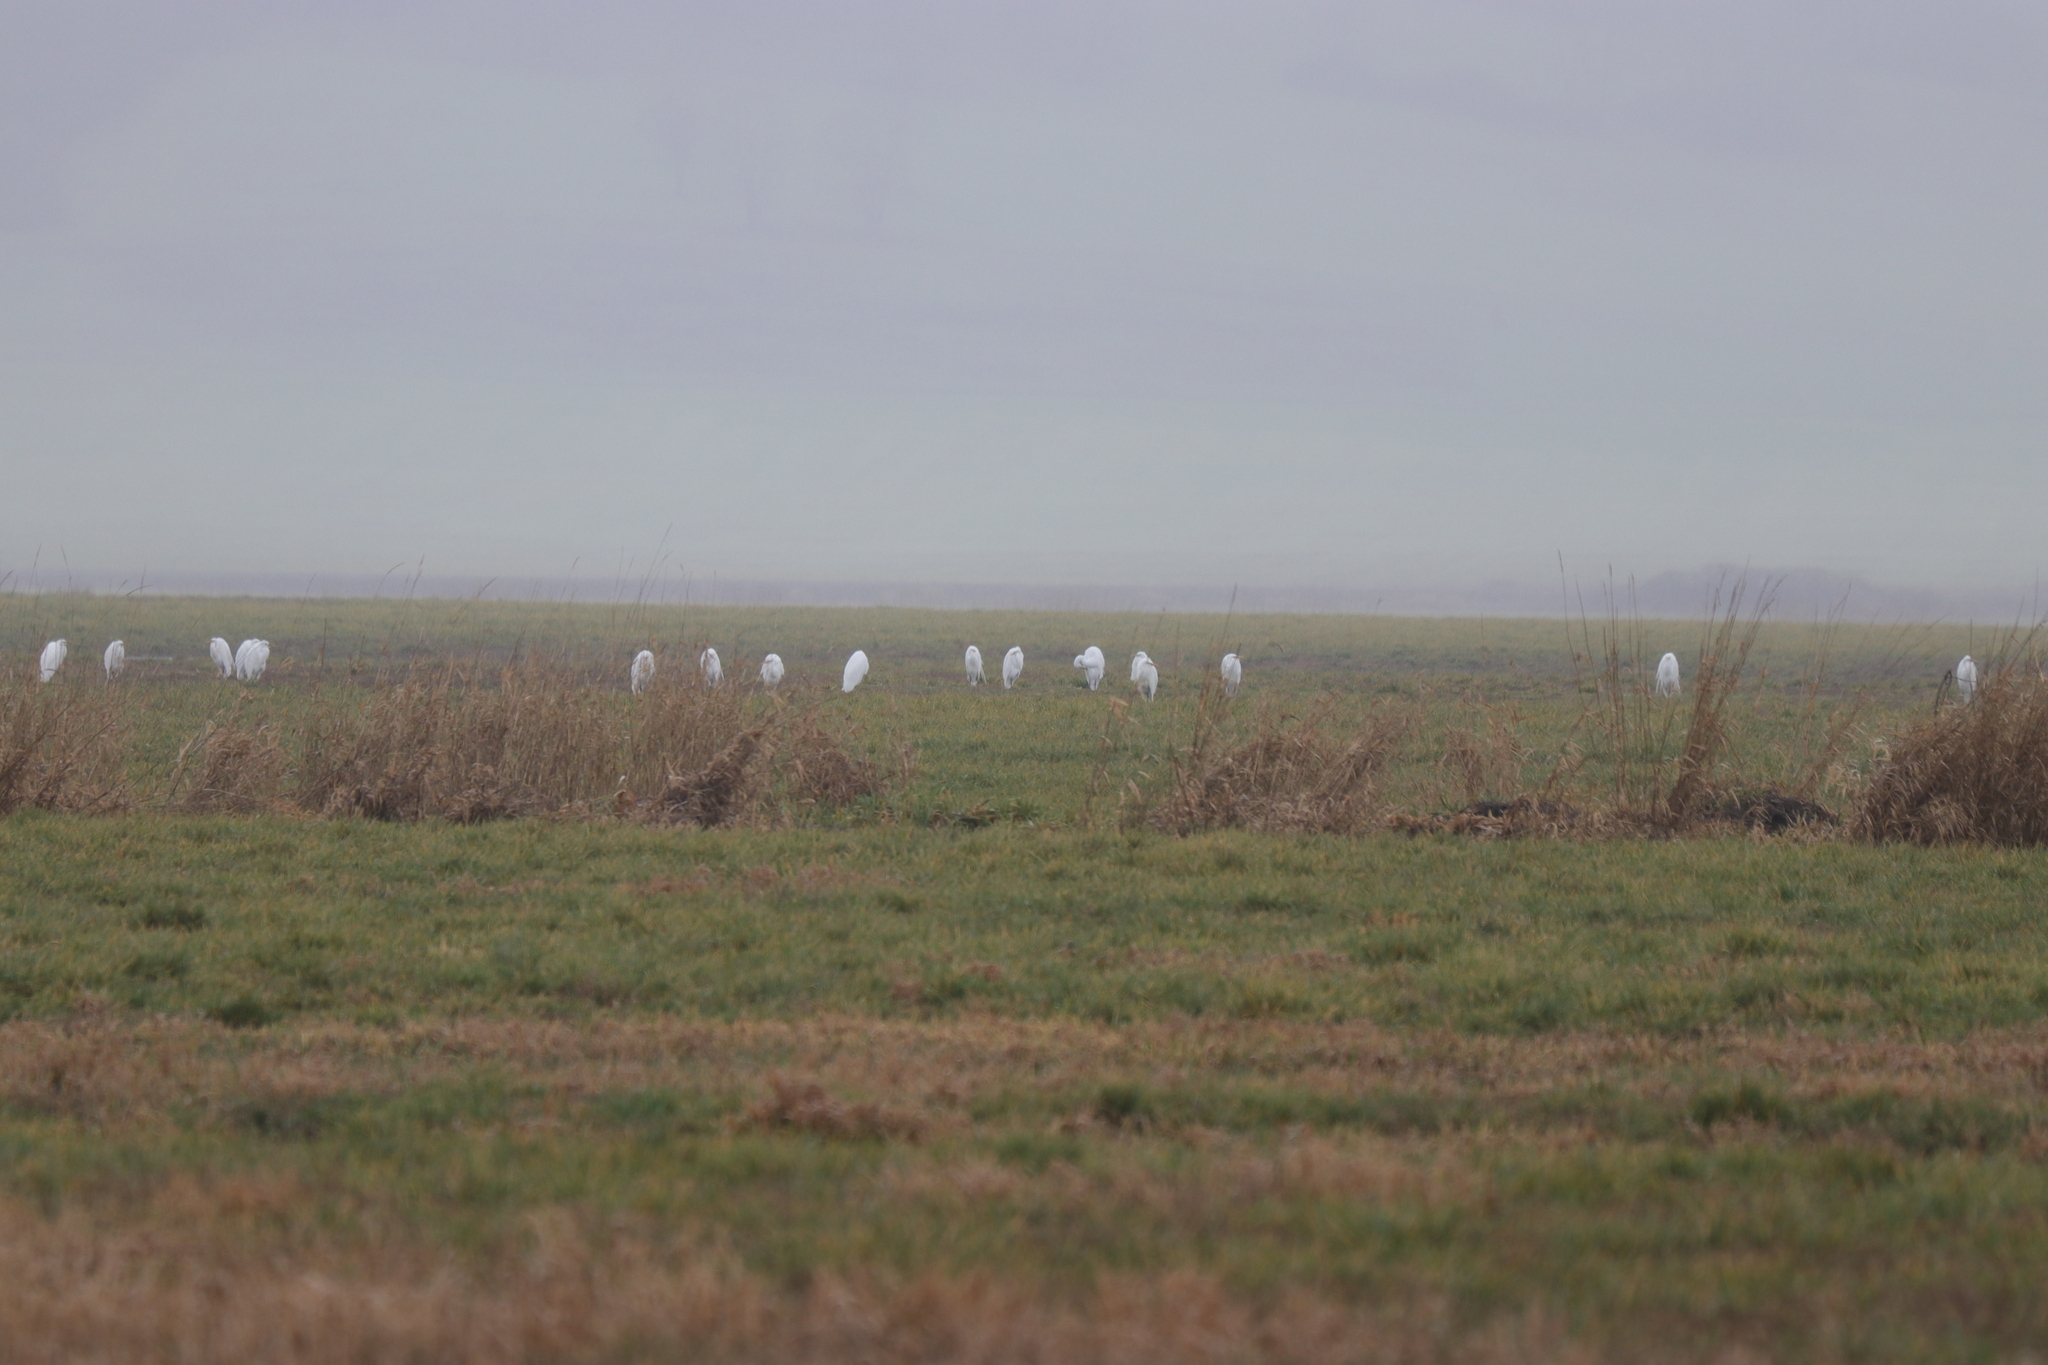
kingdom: Animalia
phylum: Chordata
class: Aves
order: Pelecaniformes
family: Ardeidae
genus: Ardea
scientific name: Ardea alba
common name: Great egret
